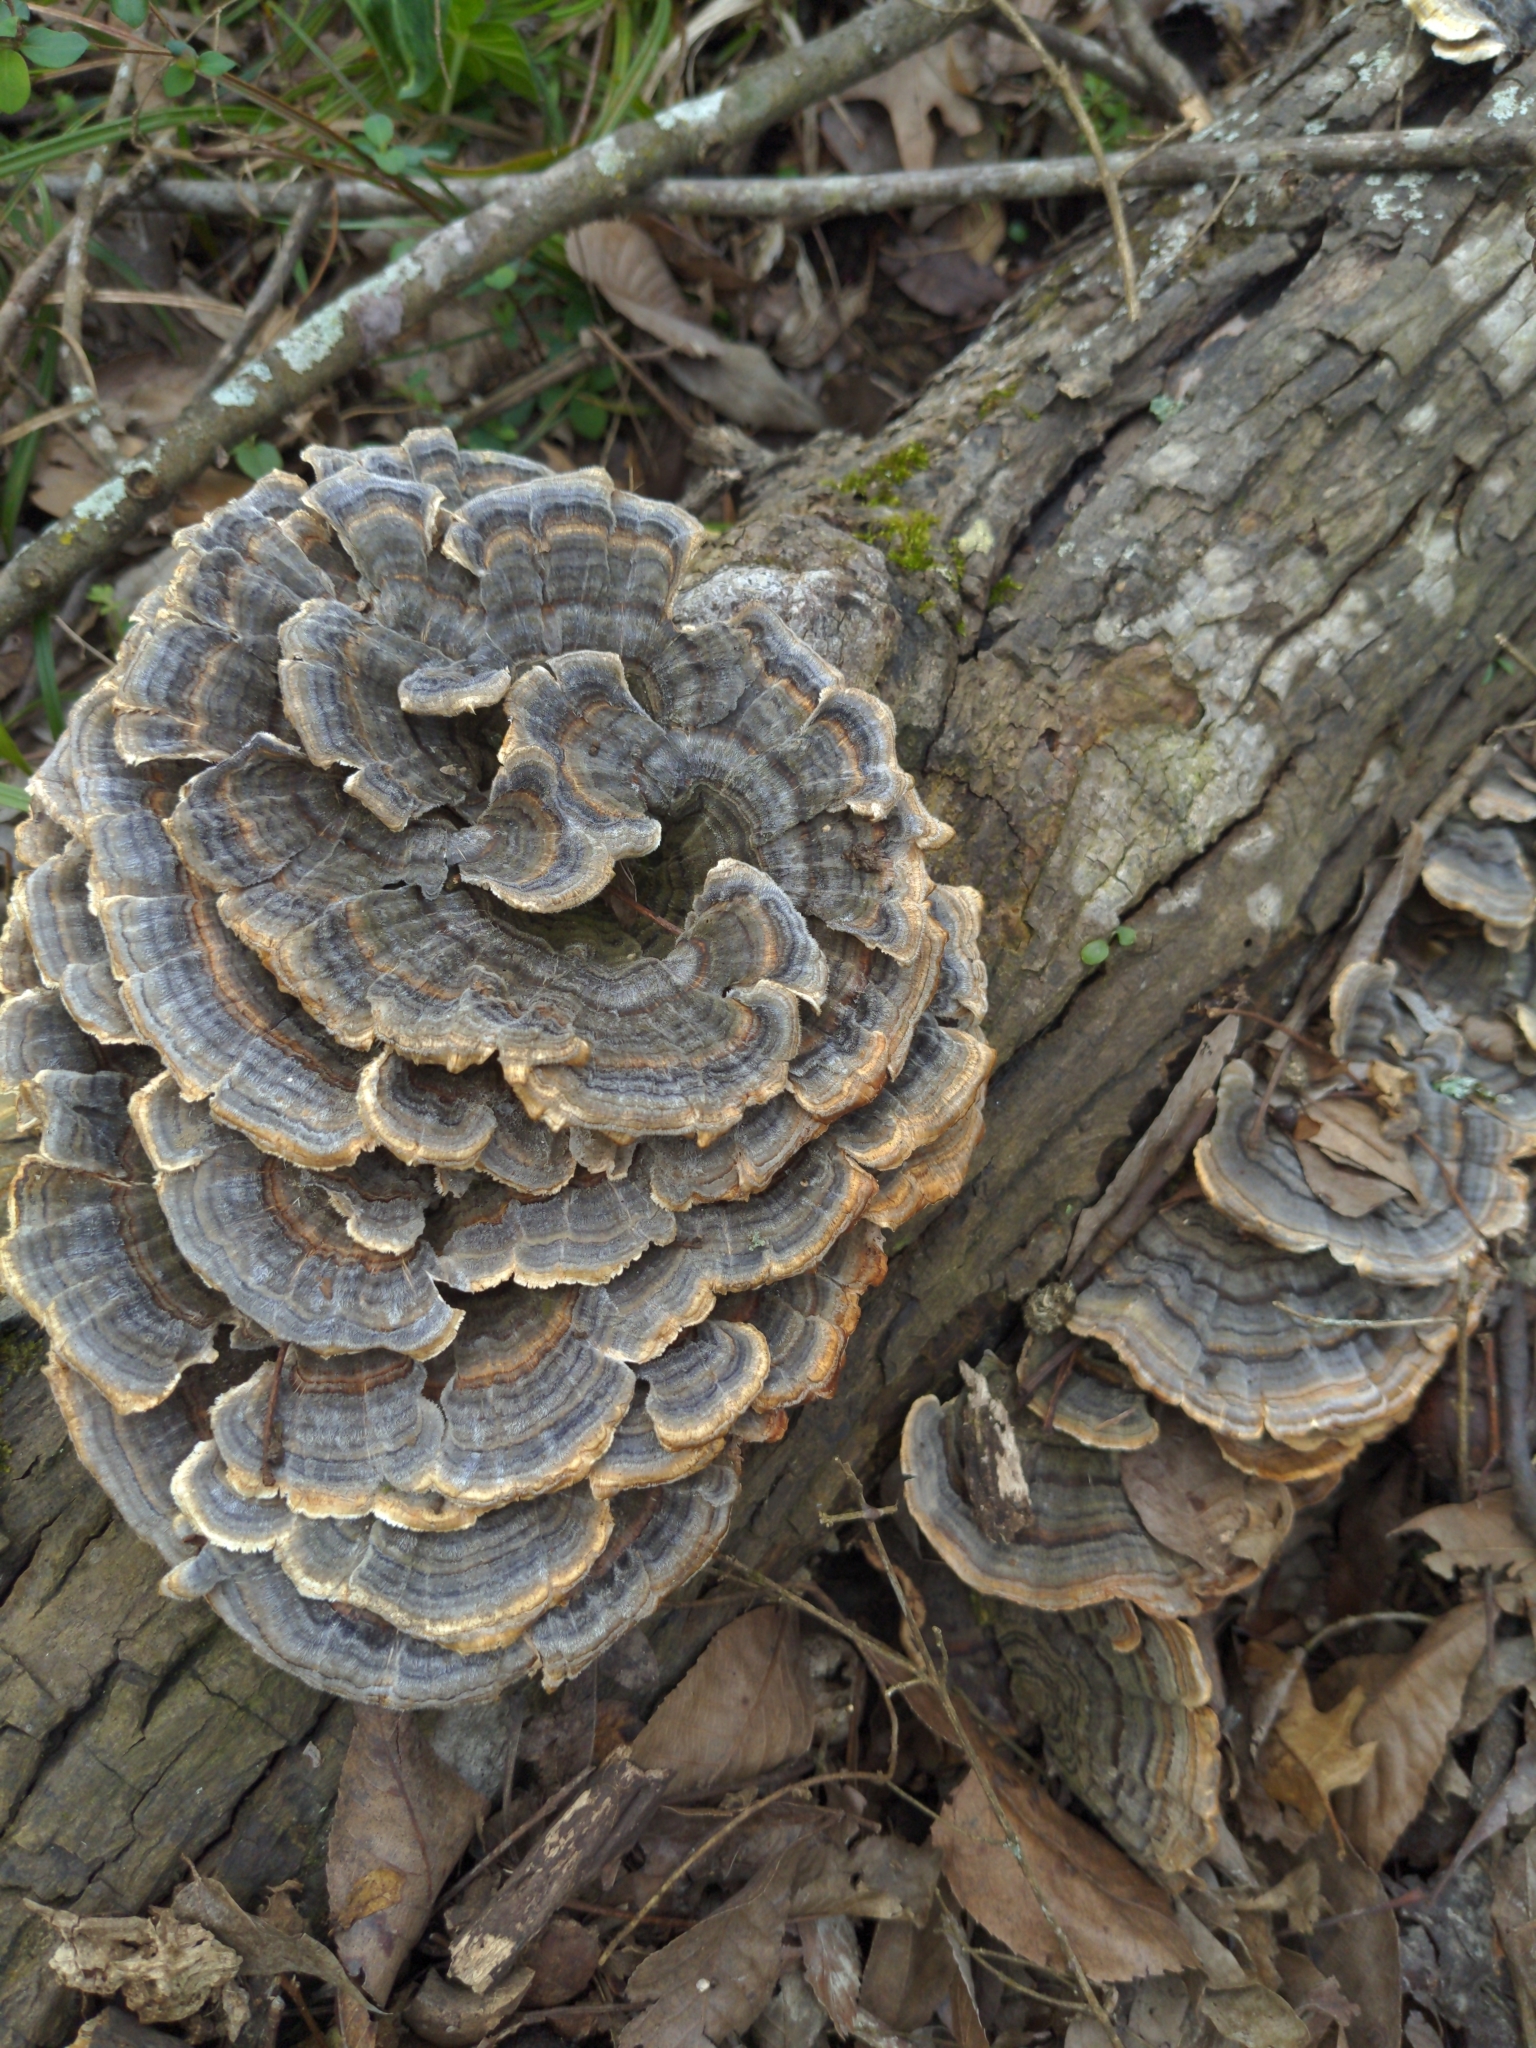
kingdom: Fungi
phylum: Basidiomycota
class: Agaricomycetes
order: Polyporales
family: Polyporaceae
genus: Trametes
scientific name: Trametes versicolor
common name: Turkeytail
